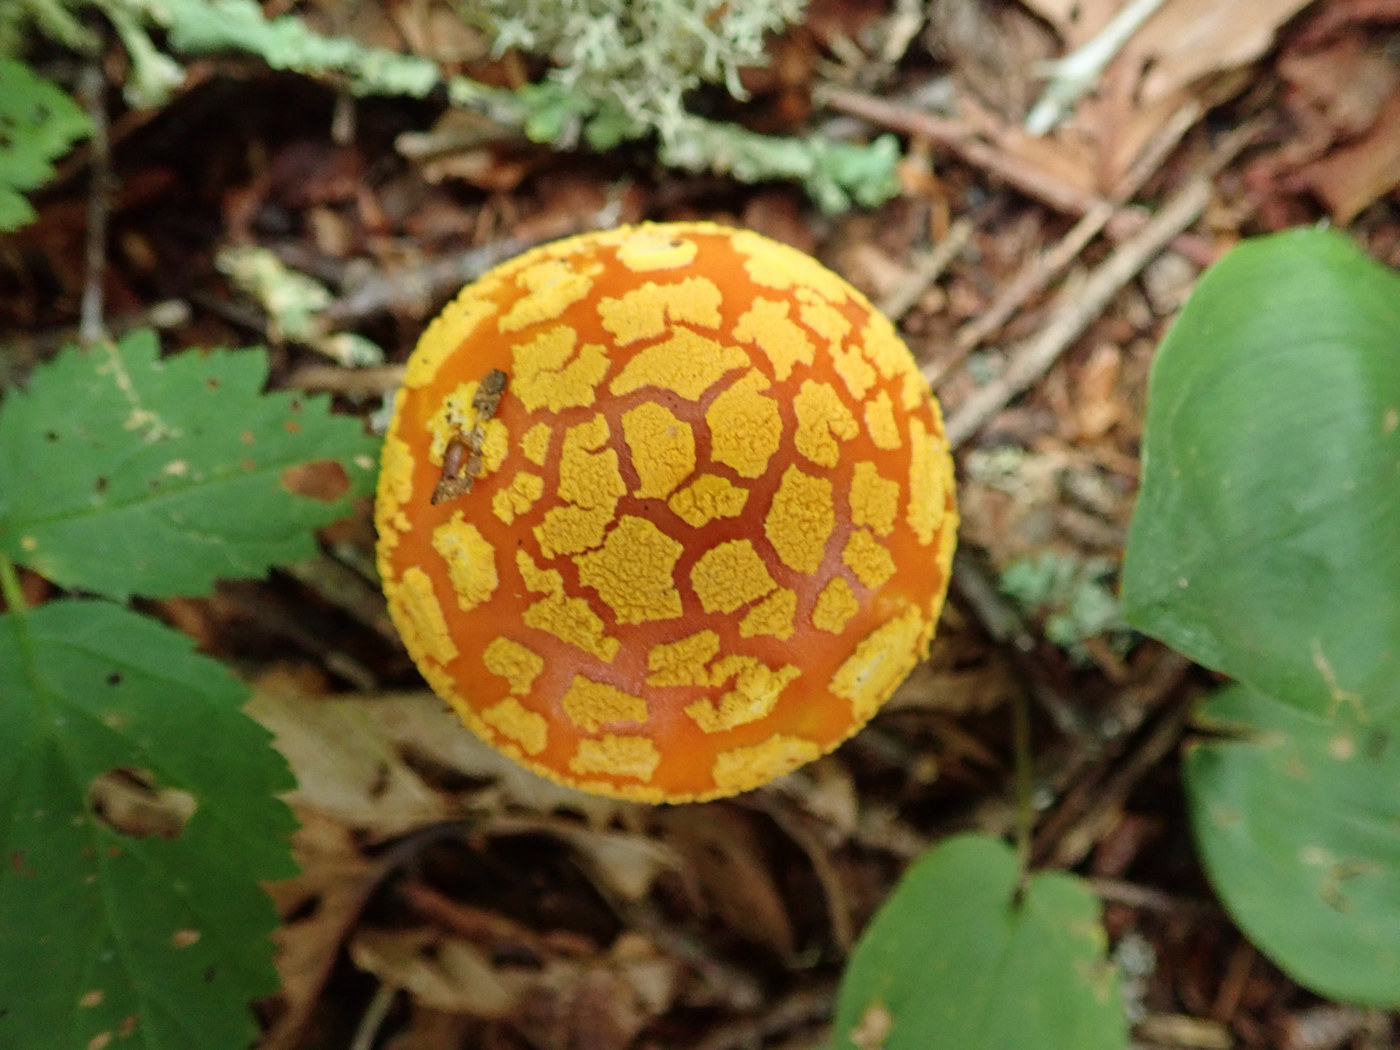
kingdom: Fungi
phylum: Basidiomycota
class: Agaricomycetes
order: Agaricales
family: Amanitaceae
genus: Amanita
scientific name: Amanita flavoconia
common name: Yellow patches
